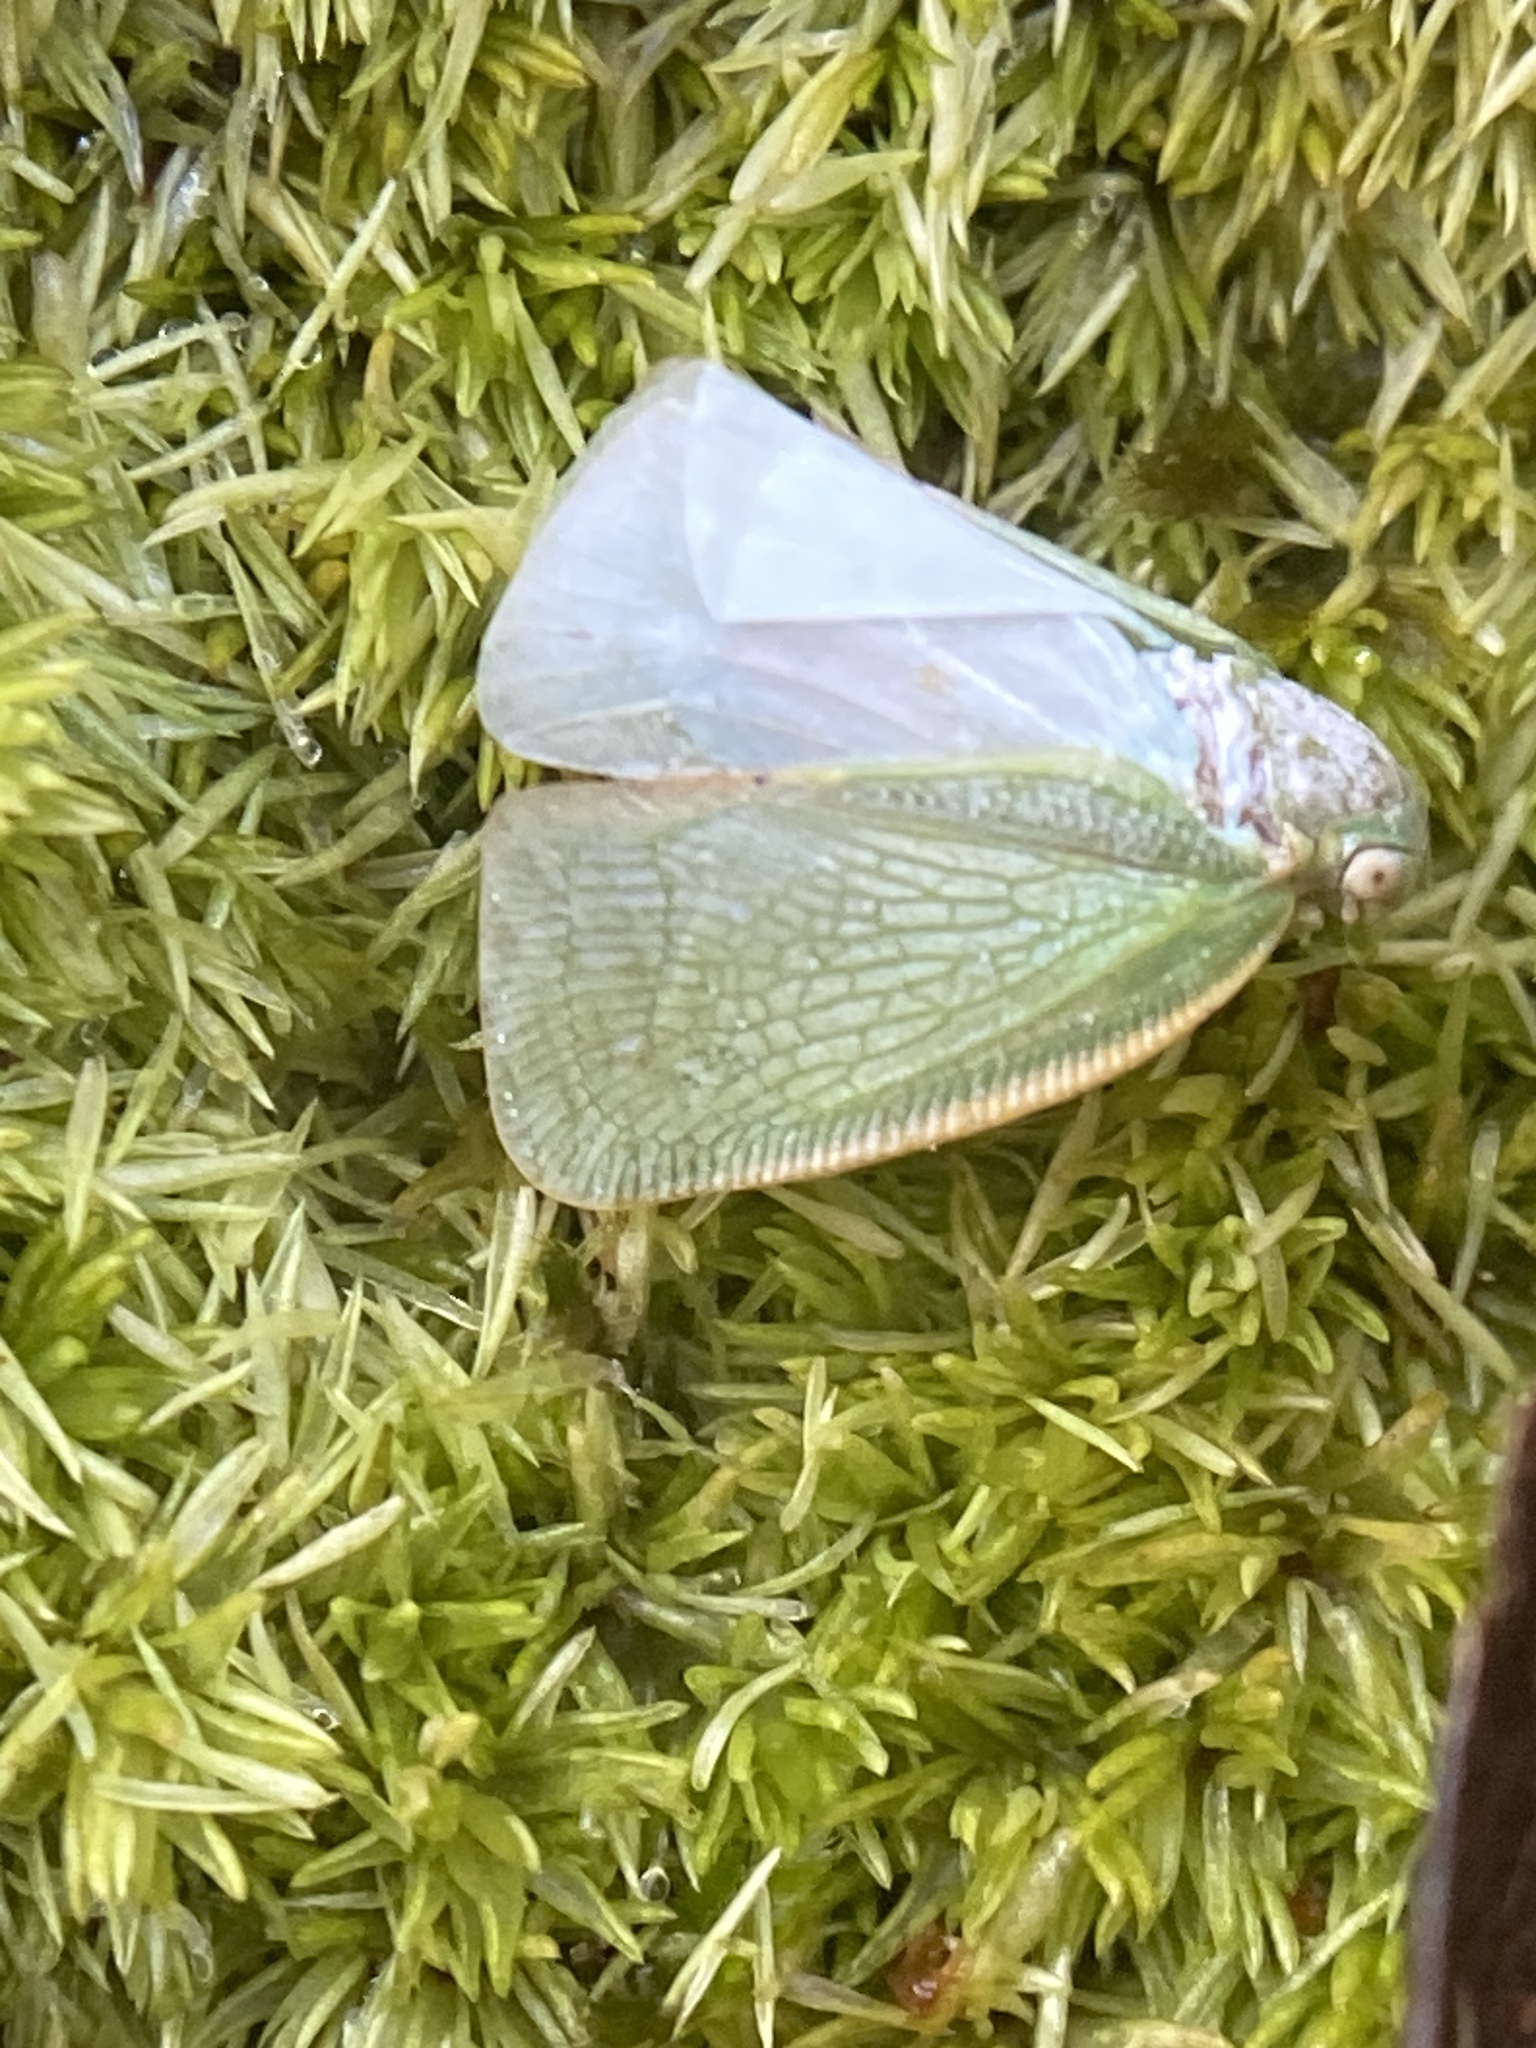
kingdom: Animalia
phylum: Arthropoda
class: Insecta
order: Hemiptera
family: Flatidae
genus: Flatormenis
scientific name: Flatormenis proxima
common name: Northern flatid planthopper
